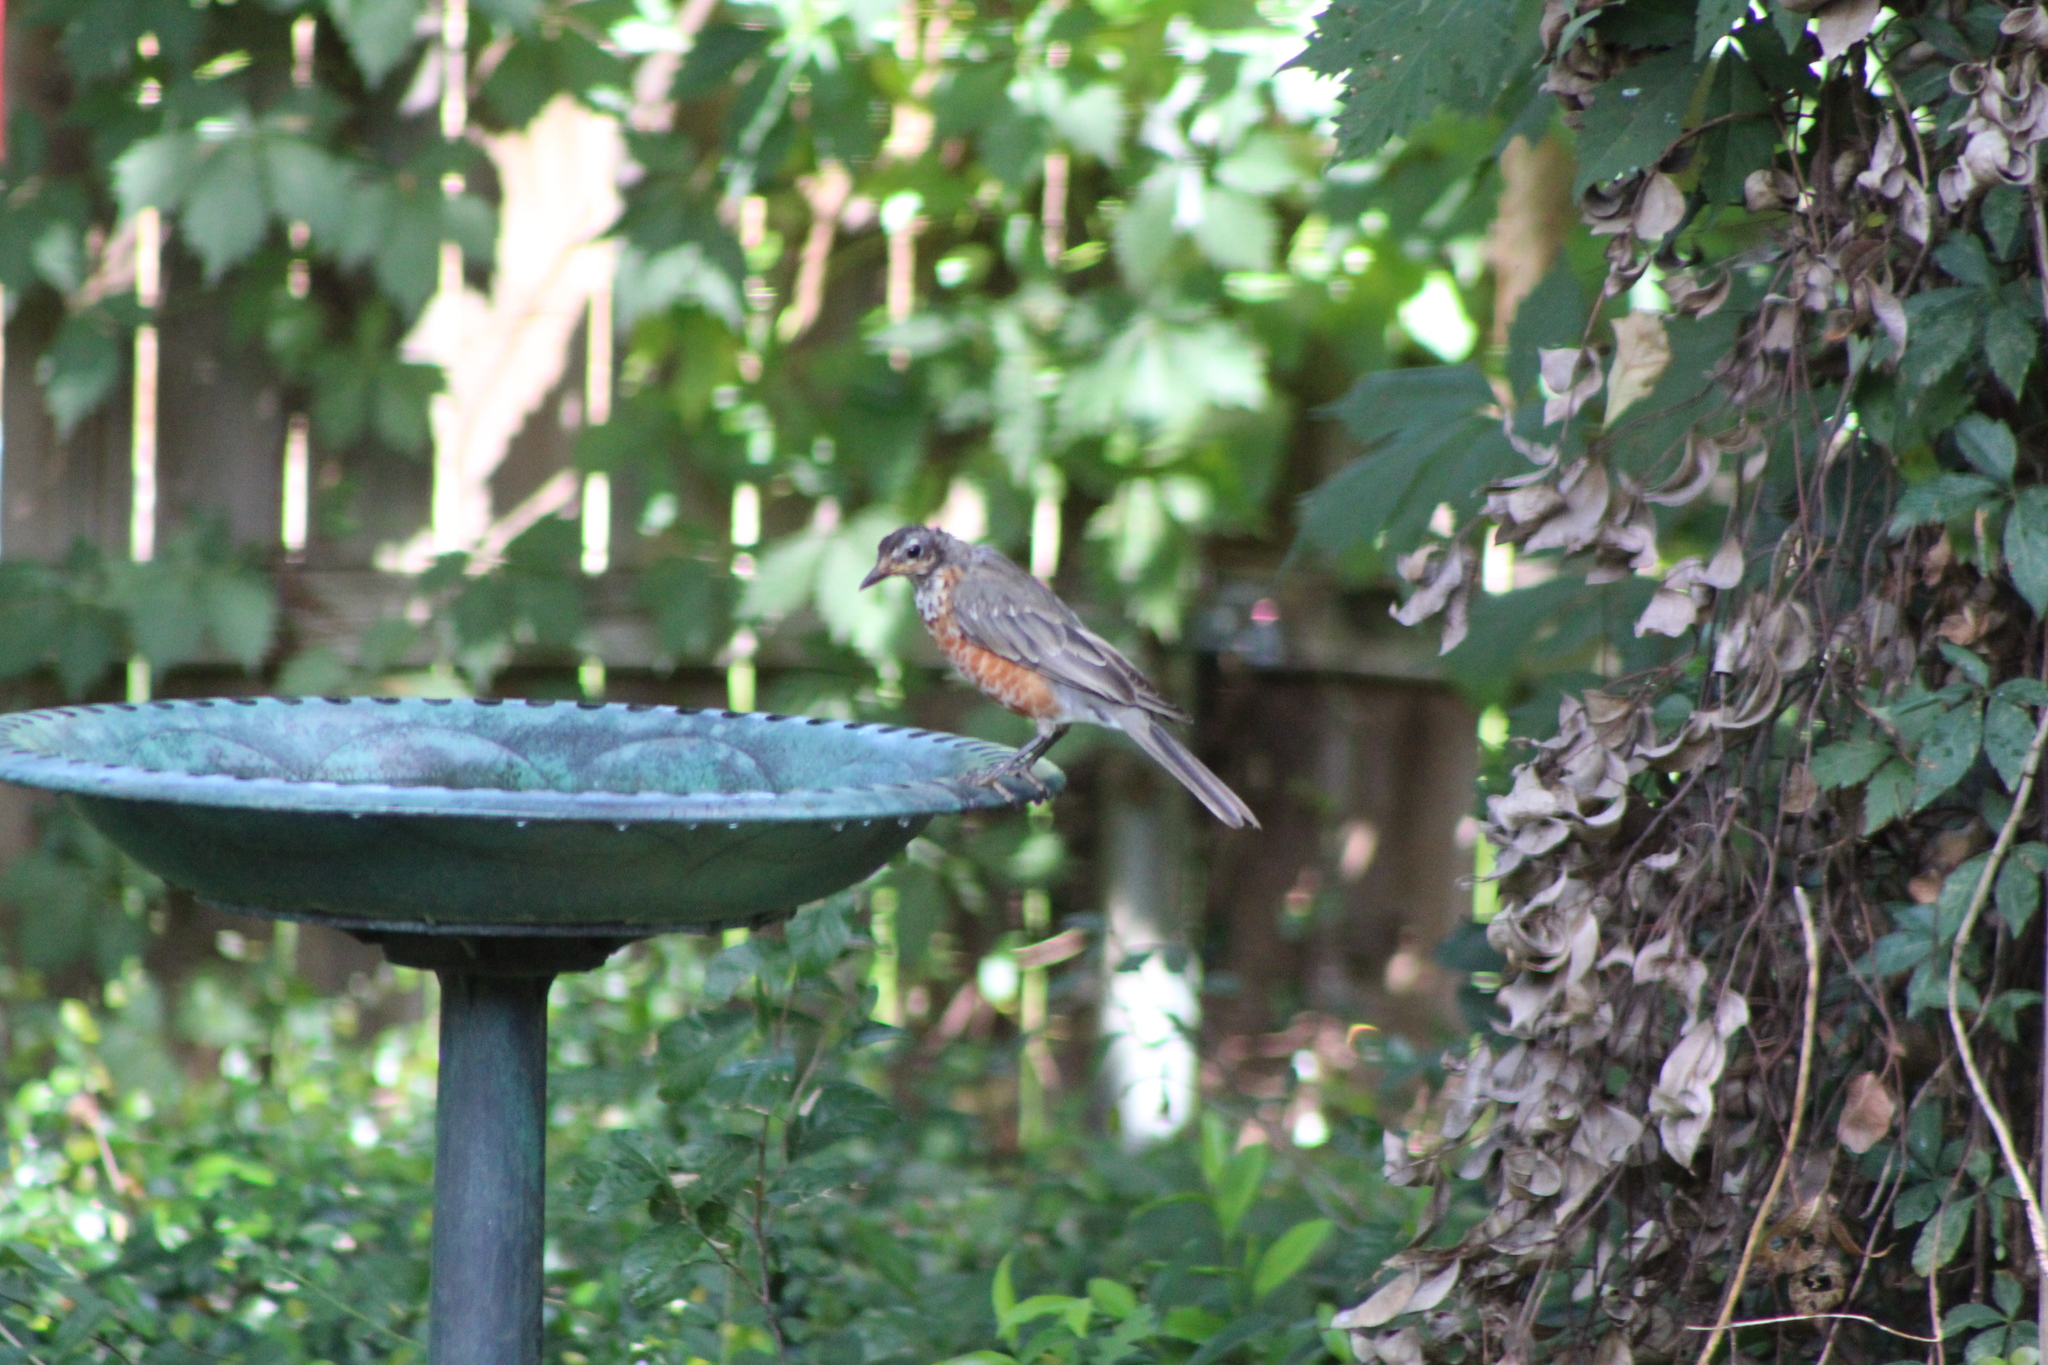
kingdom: Animalia
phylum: Chordata
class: Aves
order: Passeriformes
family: Turdidae
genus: Turdus
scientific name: Turdus migratorius
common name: American robin
